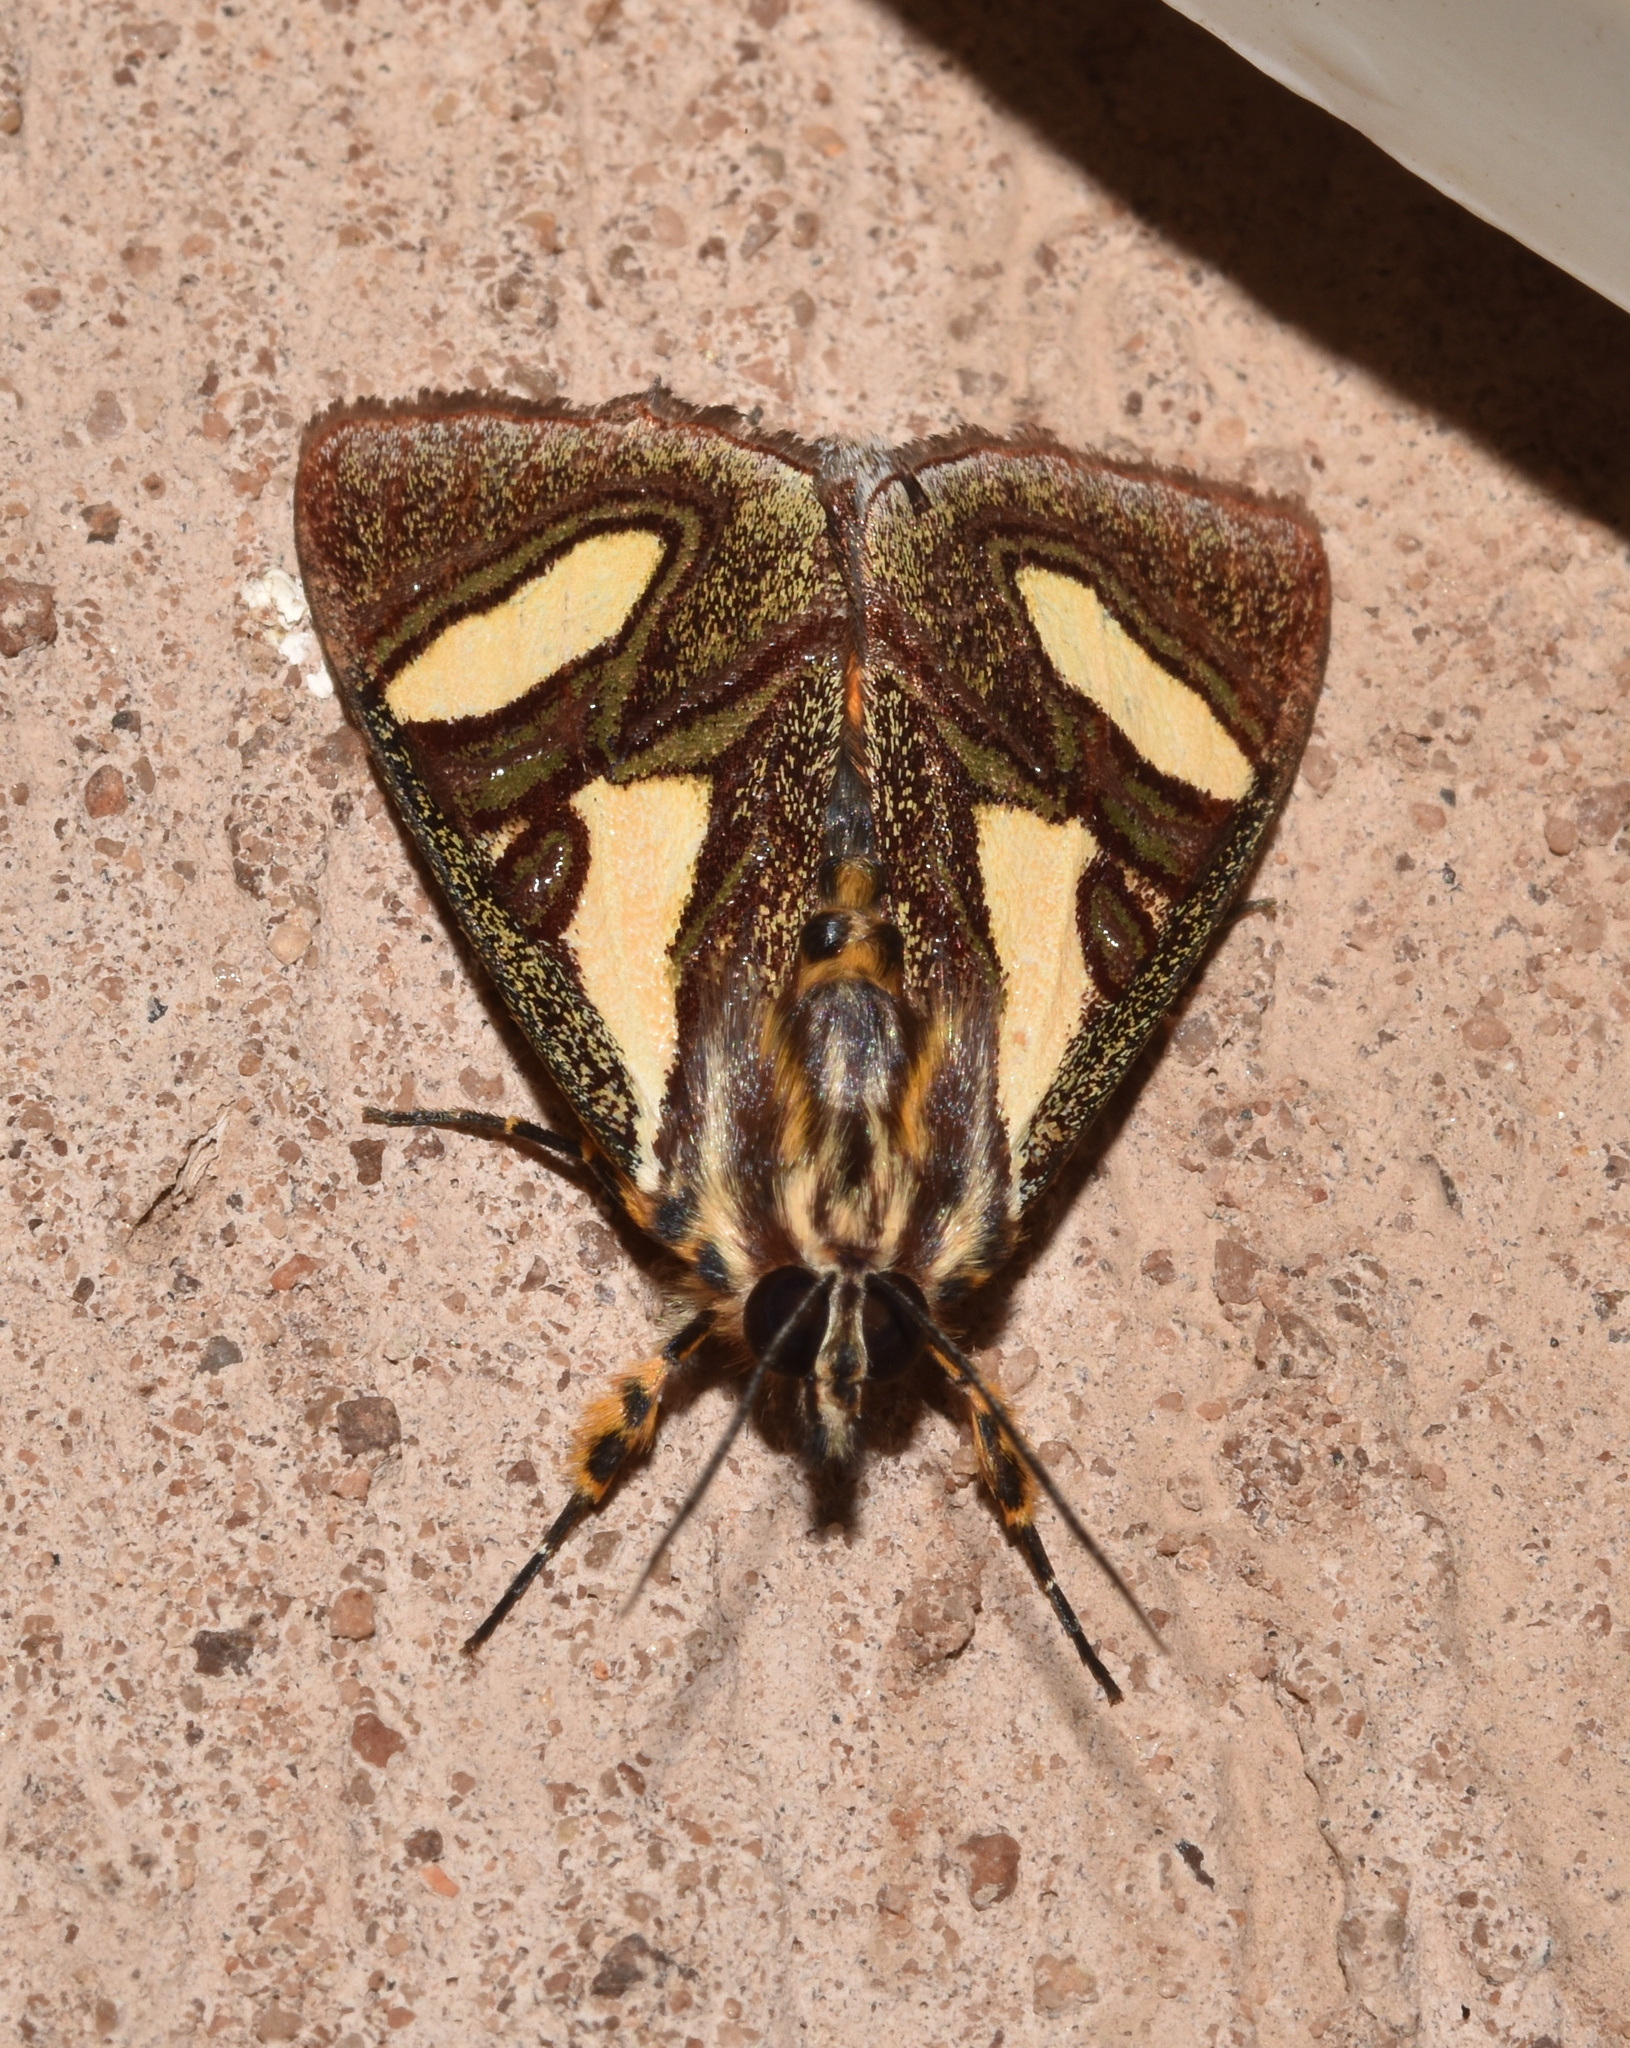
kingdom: Animalia
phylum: Arthropoda
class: Insecta
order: Lepidoptera
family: Noctuidae
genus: Agoma
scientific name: Agoma trimenii
